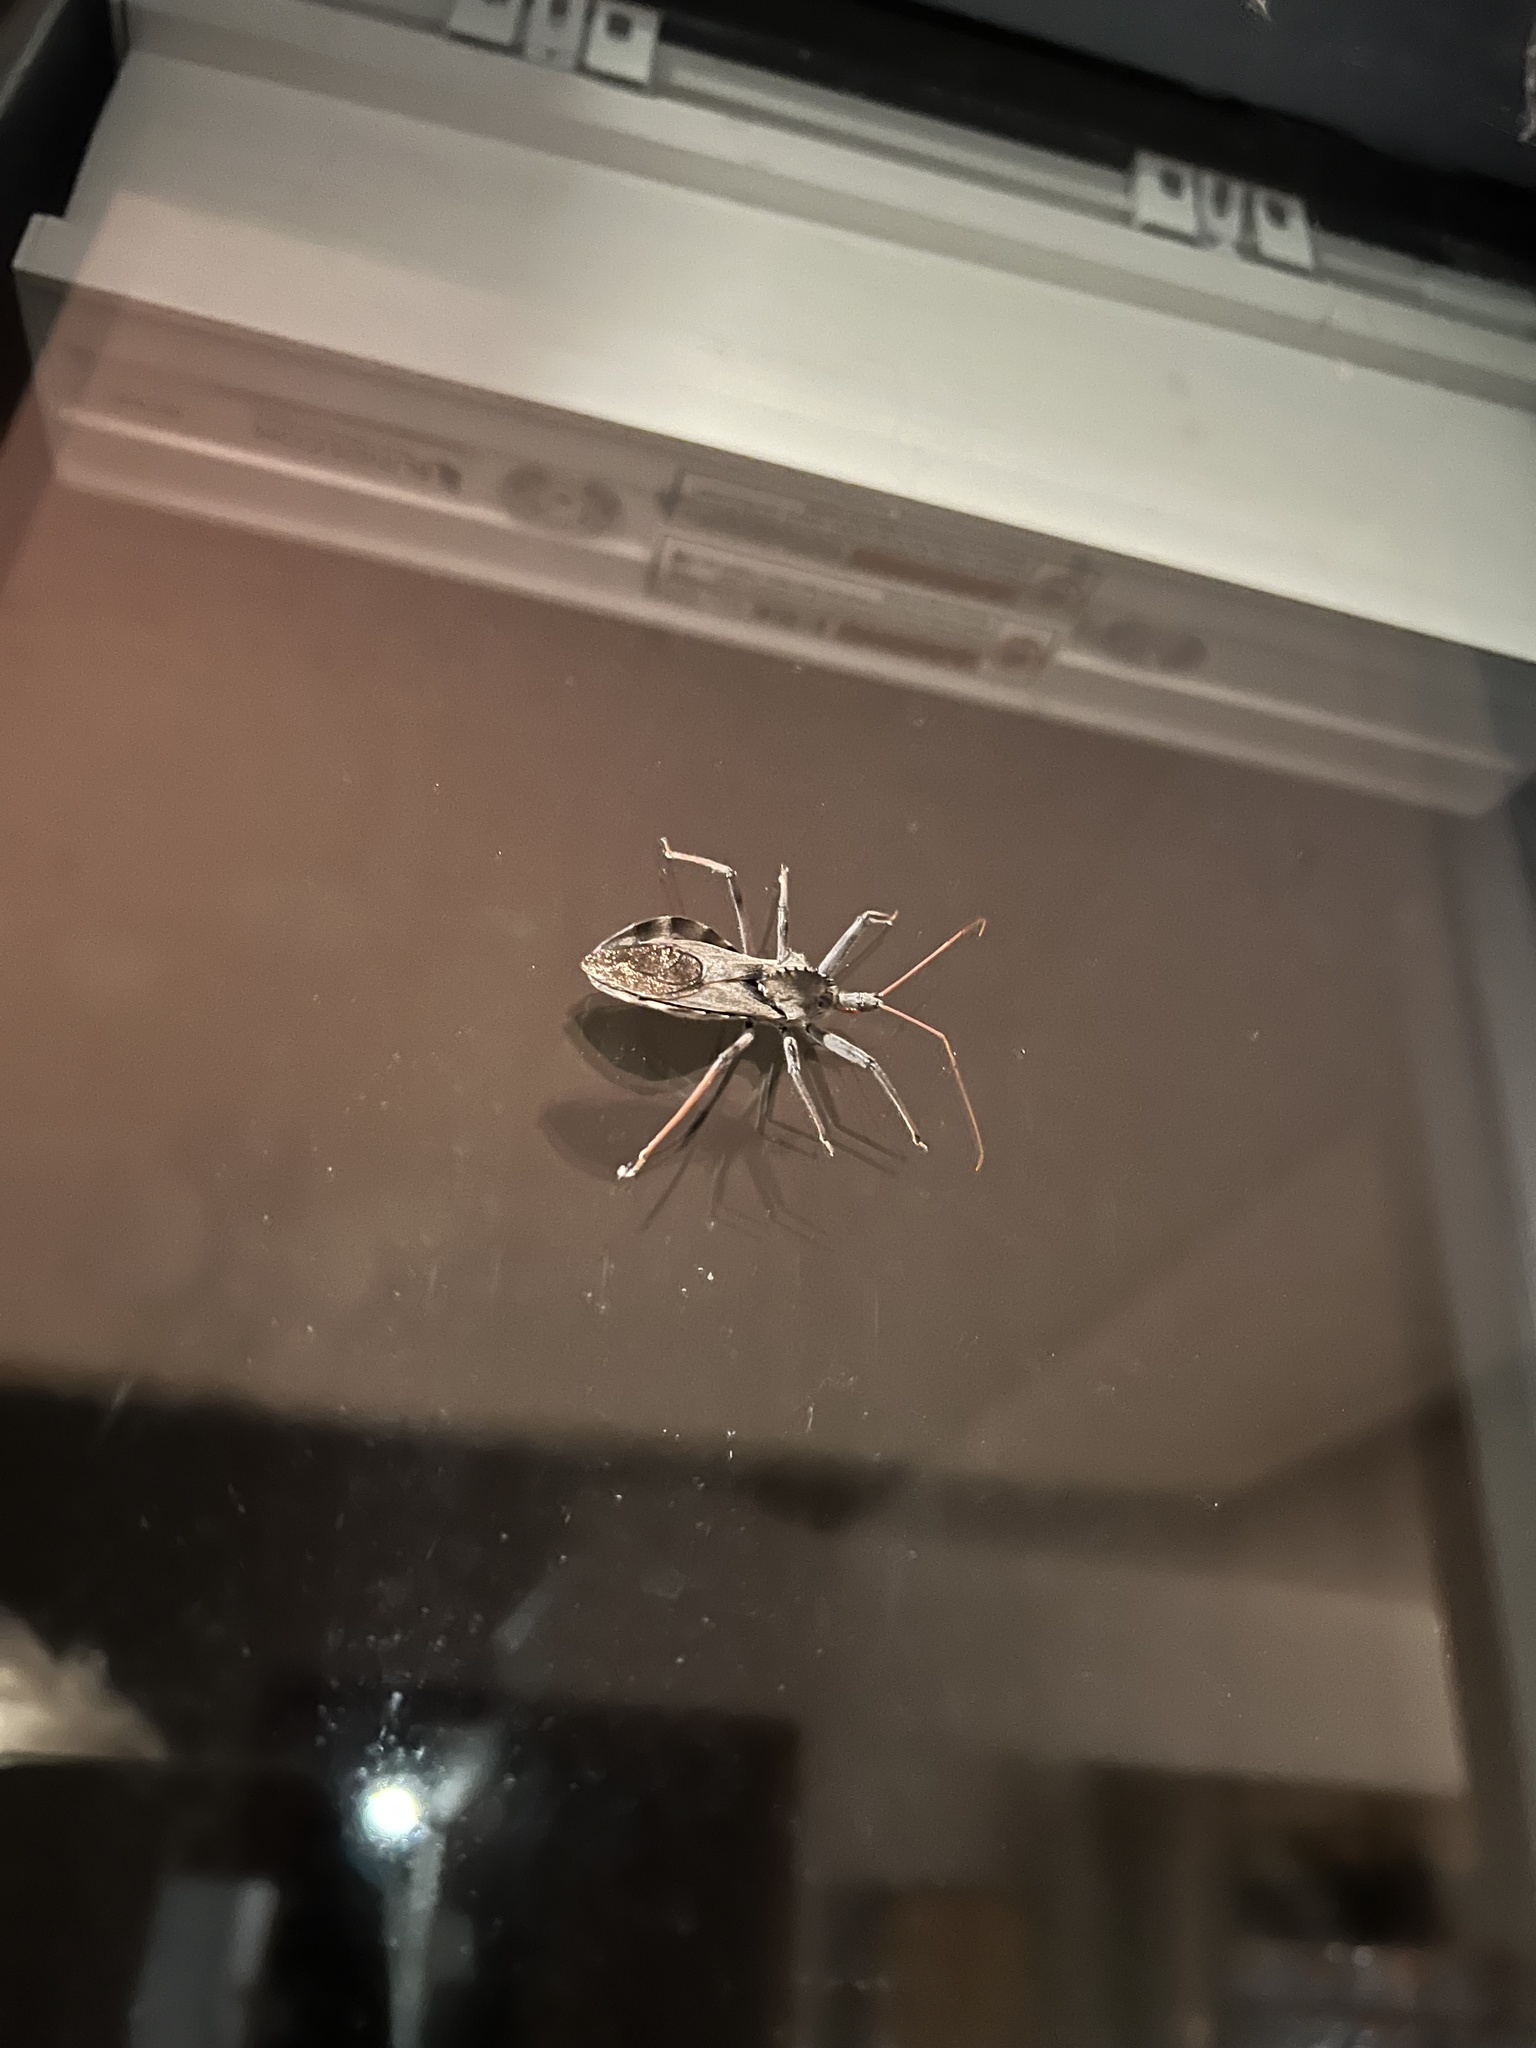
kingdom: Animalia
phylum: Arthropoda
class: Insecta
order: Hemiptera
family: Reduviidae
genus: Arilus
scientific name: Arilus cristatus
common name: North american wheel bug
